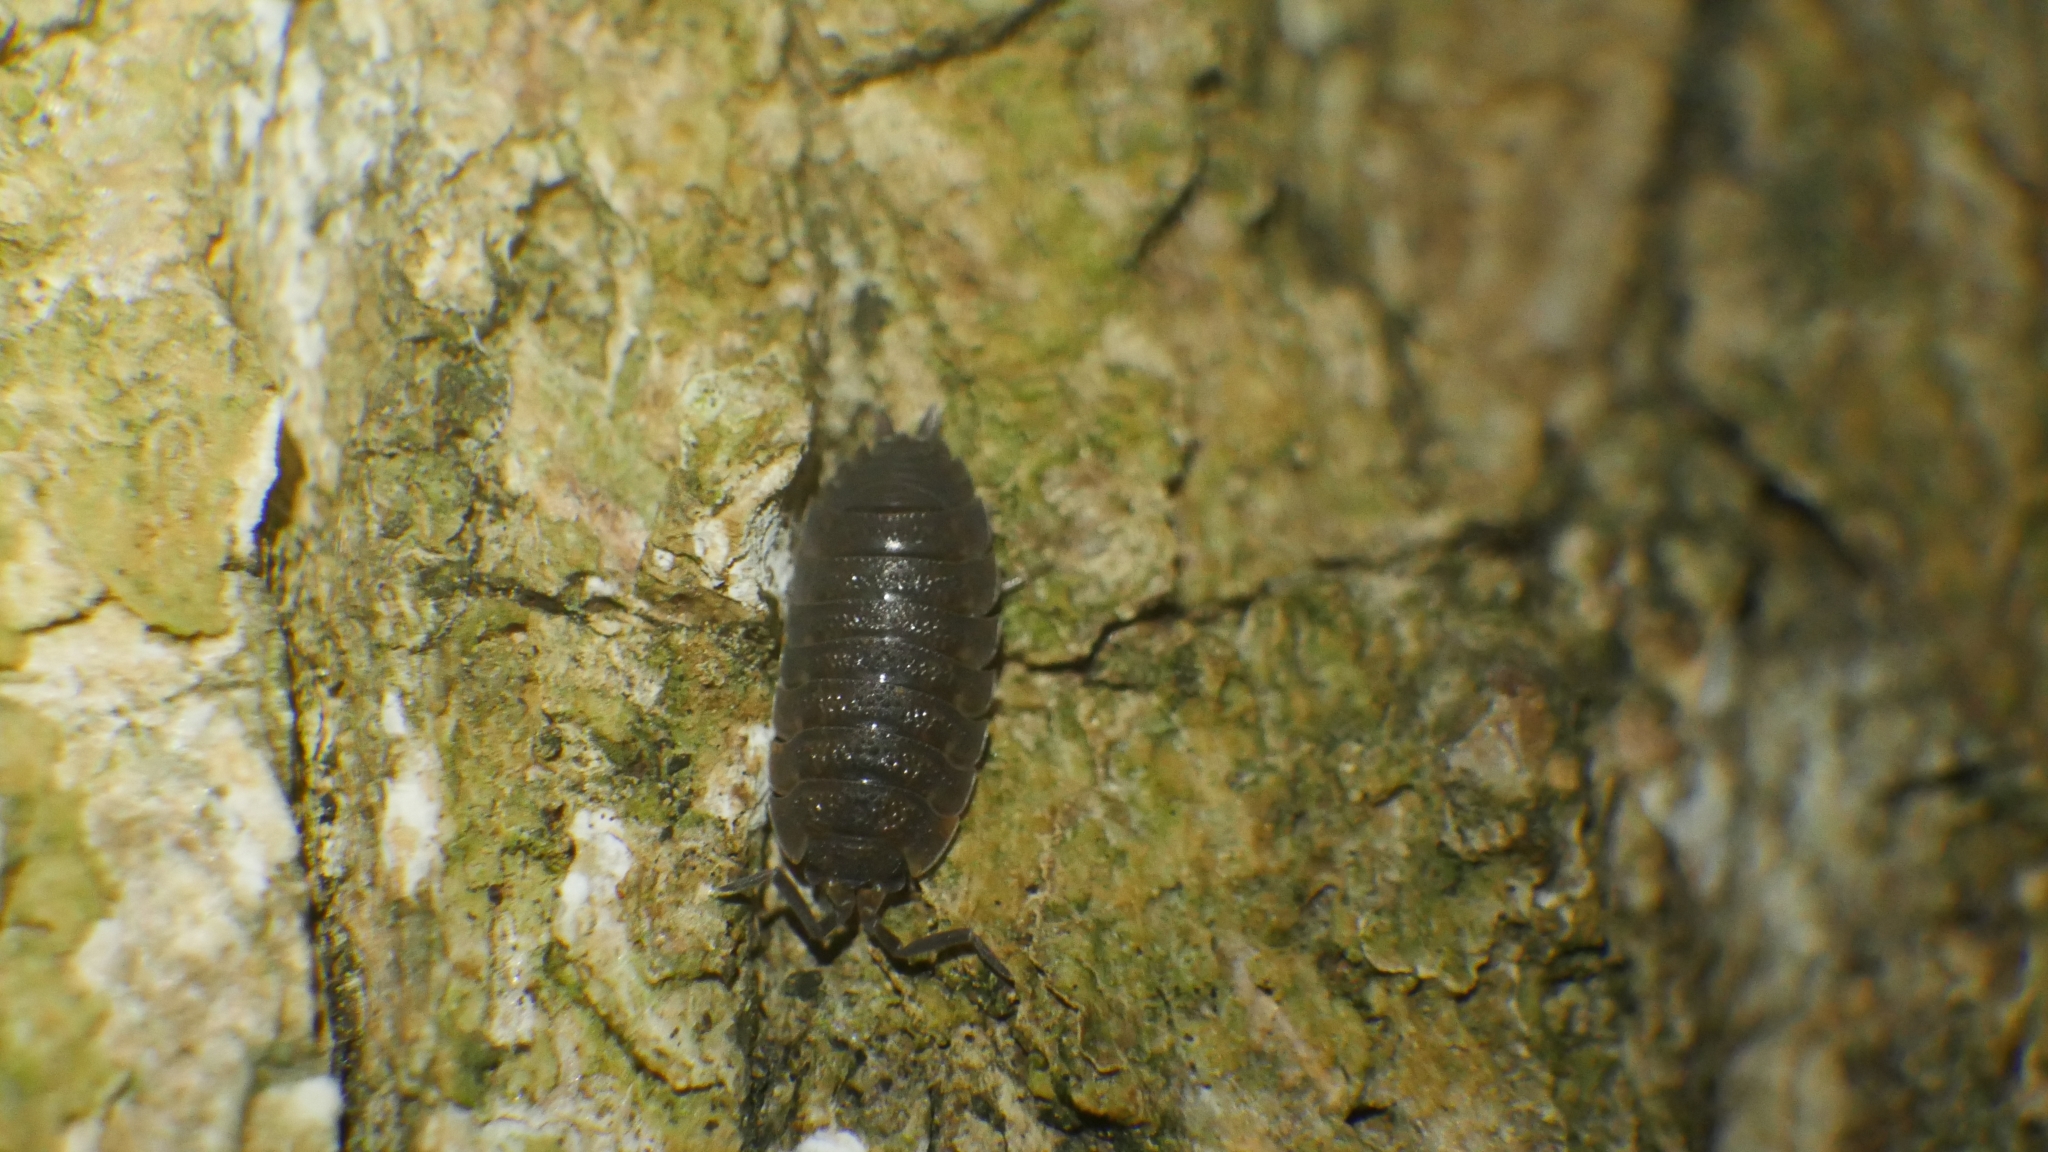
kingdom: Animalia
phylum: Arthropoda
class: Malacostraca
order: Isopoda
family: Porcellionidae
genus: Porcellio
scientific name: Porcellio scaber
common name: Common rough woodlouse
